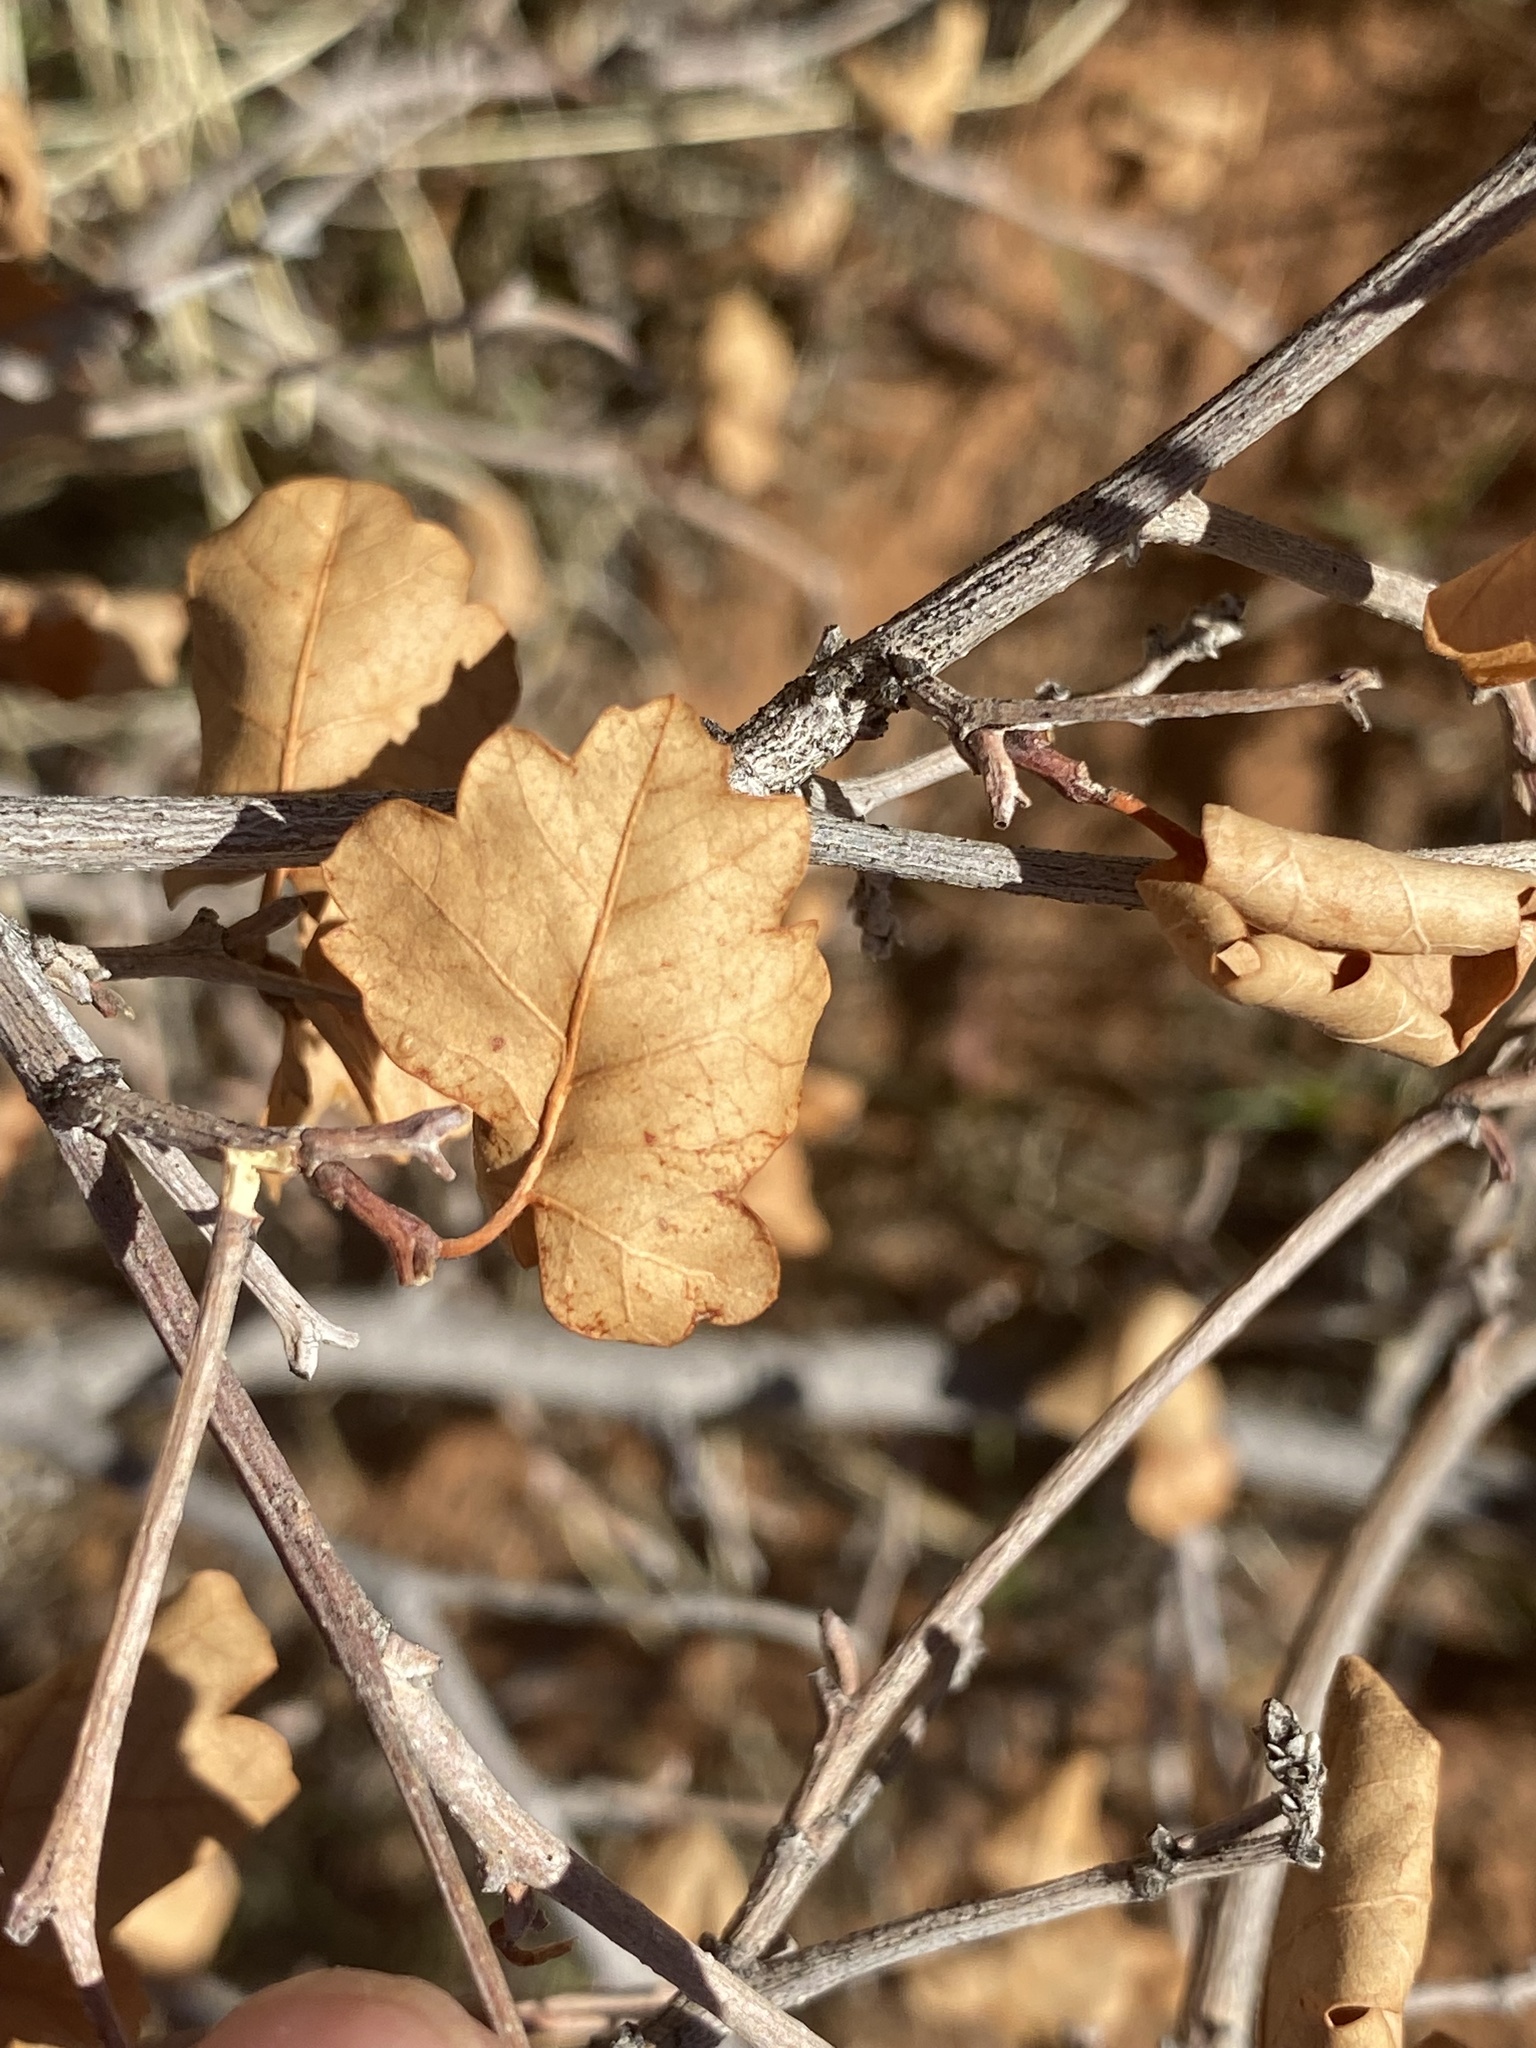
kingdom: Plantae
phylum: Tracheophyta
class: Magnoliopsida
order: Sapindales
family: Anacardiaceae
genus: Rhus
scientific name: Rhus trilobata
